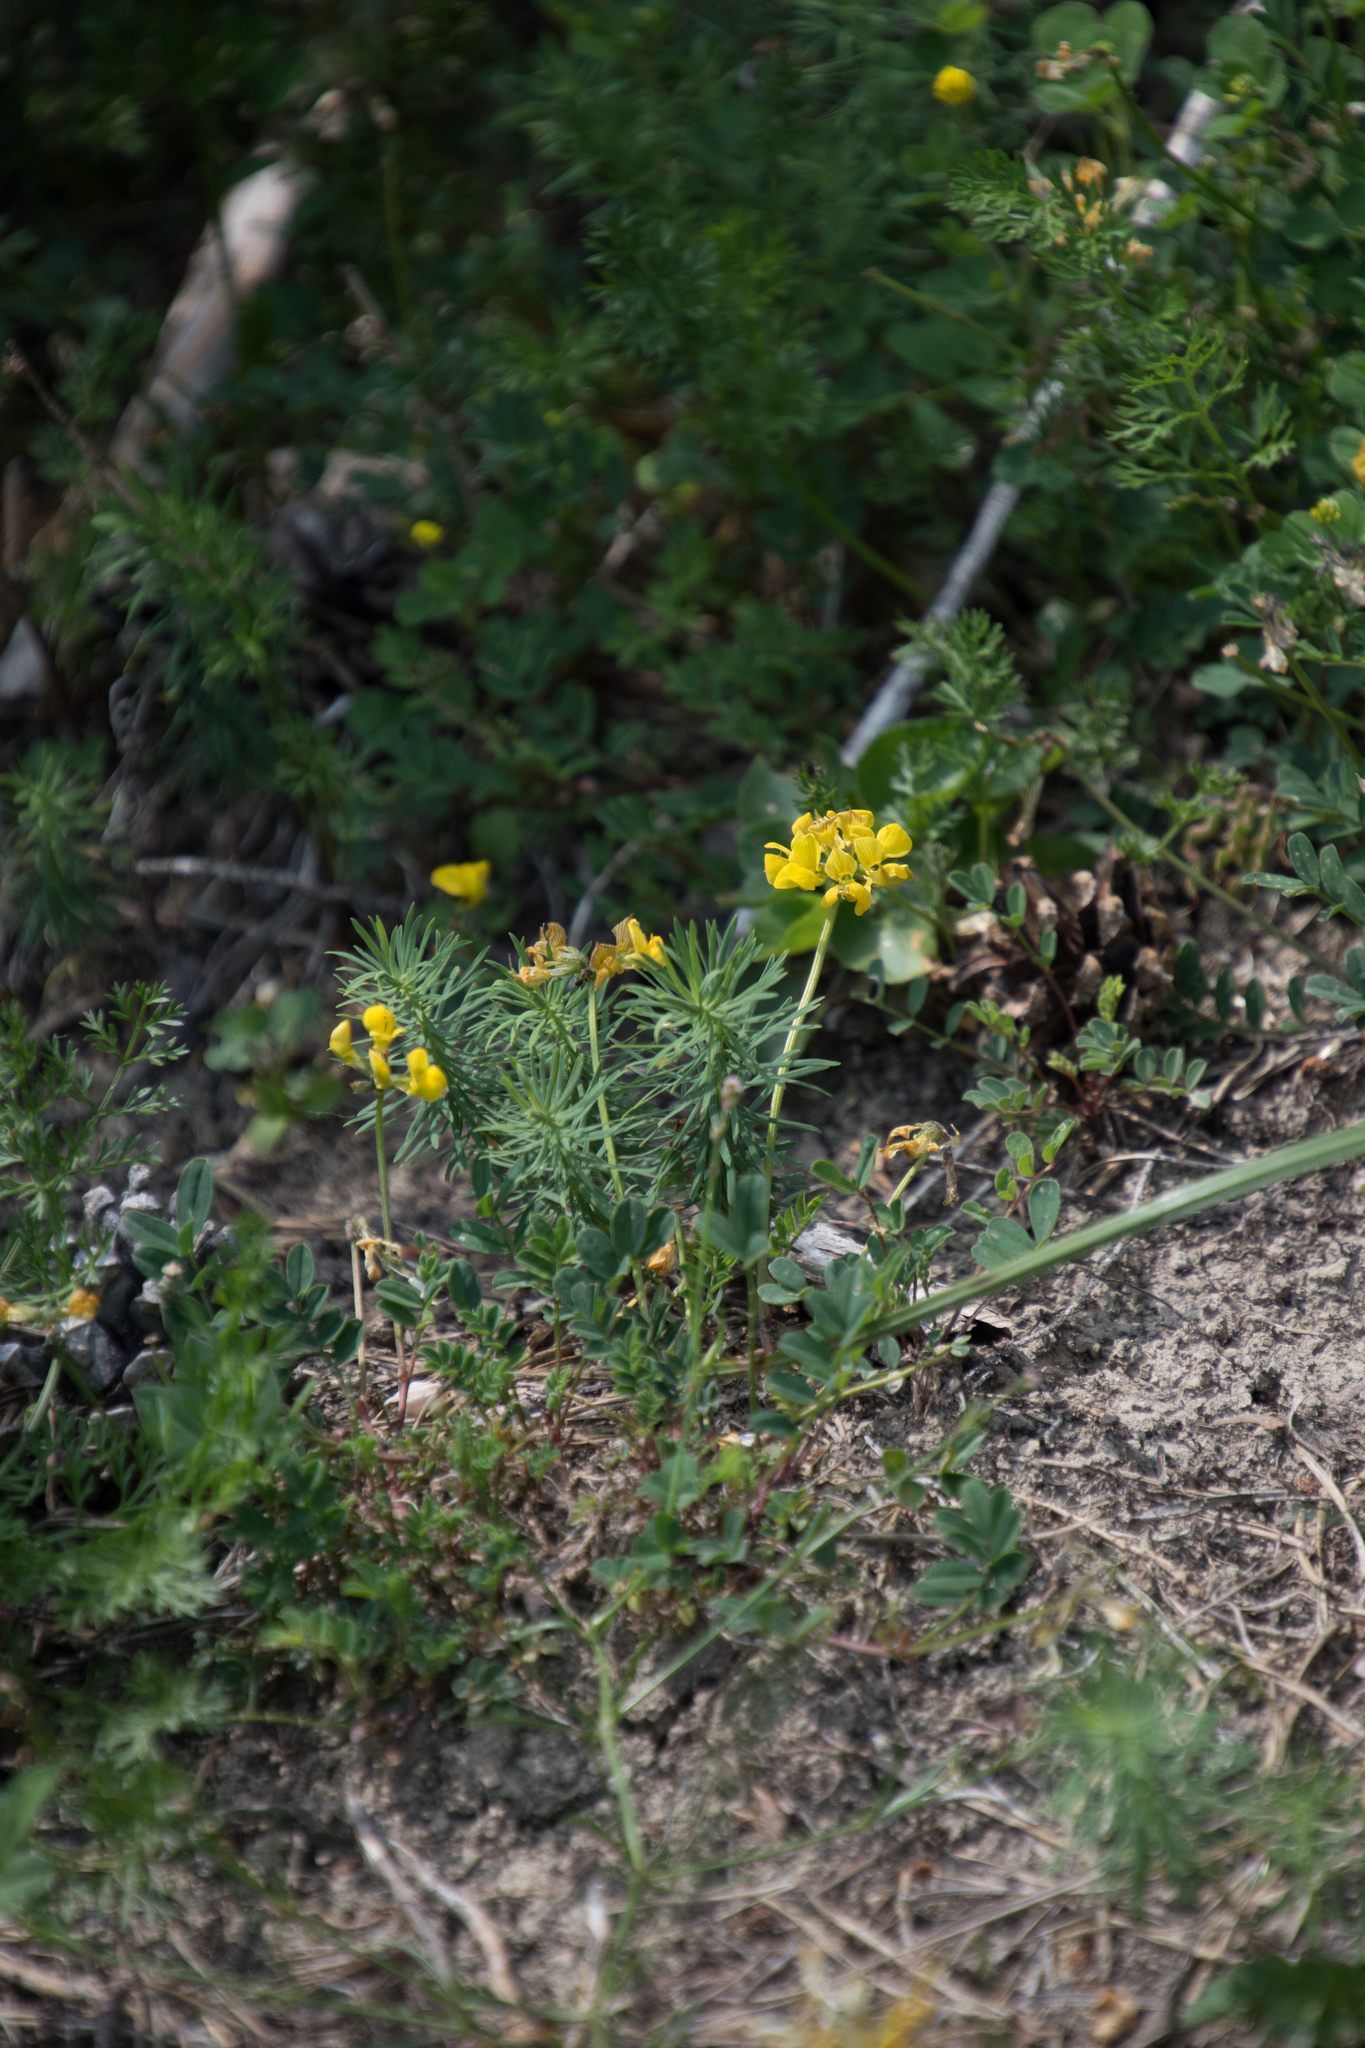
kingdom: Plantae
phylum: Tracheophyta
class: Magnoliopsida
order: Fabales
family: Fabaceae
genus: Hippocrepis
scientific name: Hippocrepis comosa
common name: Horseshoe vetch
